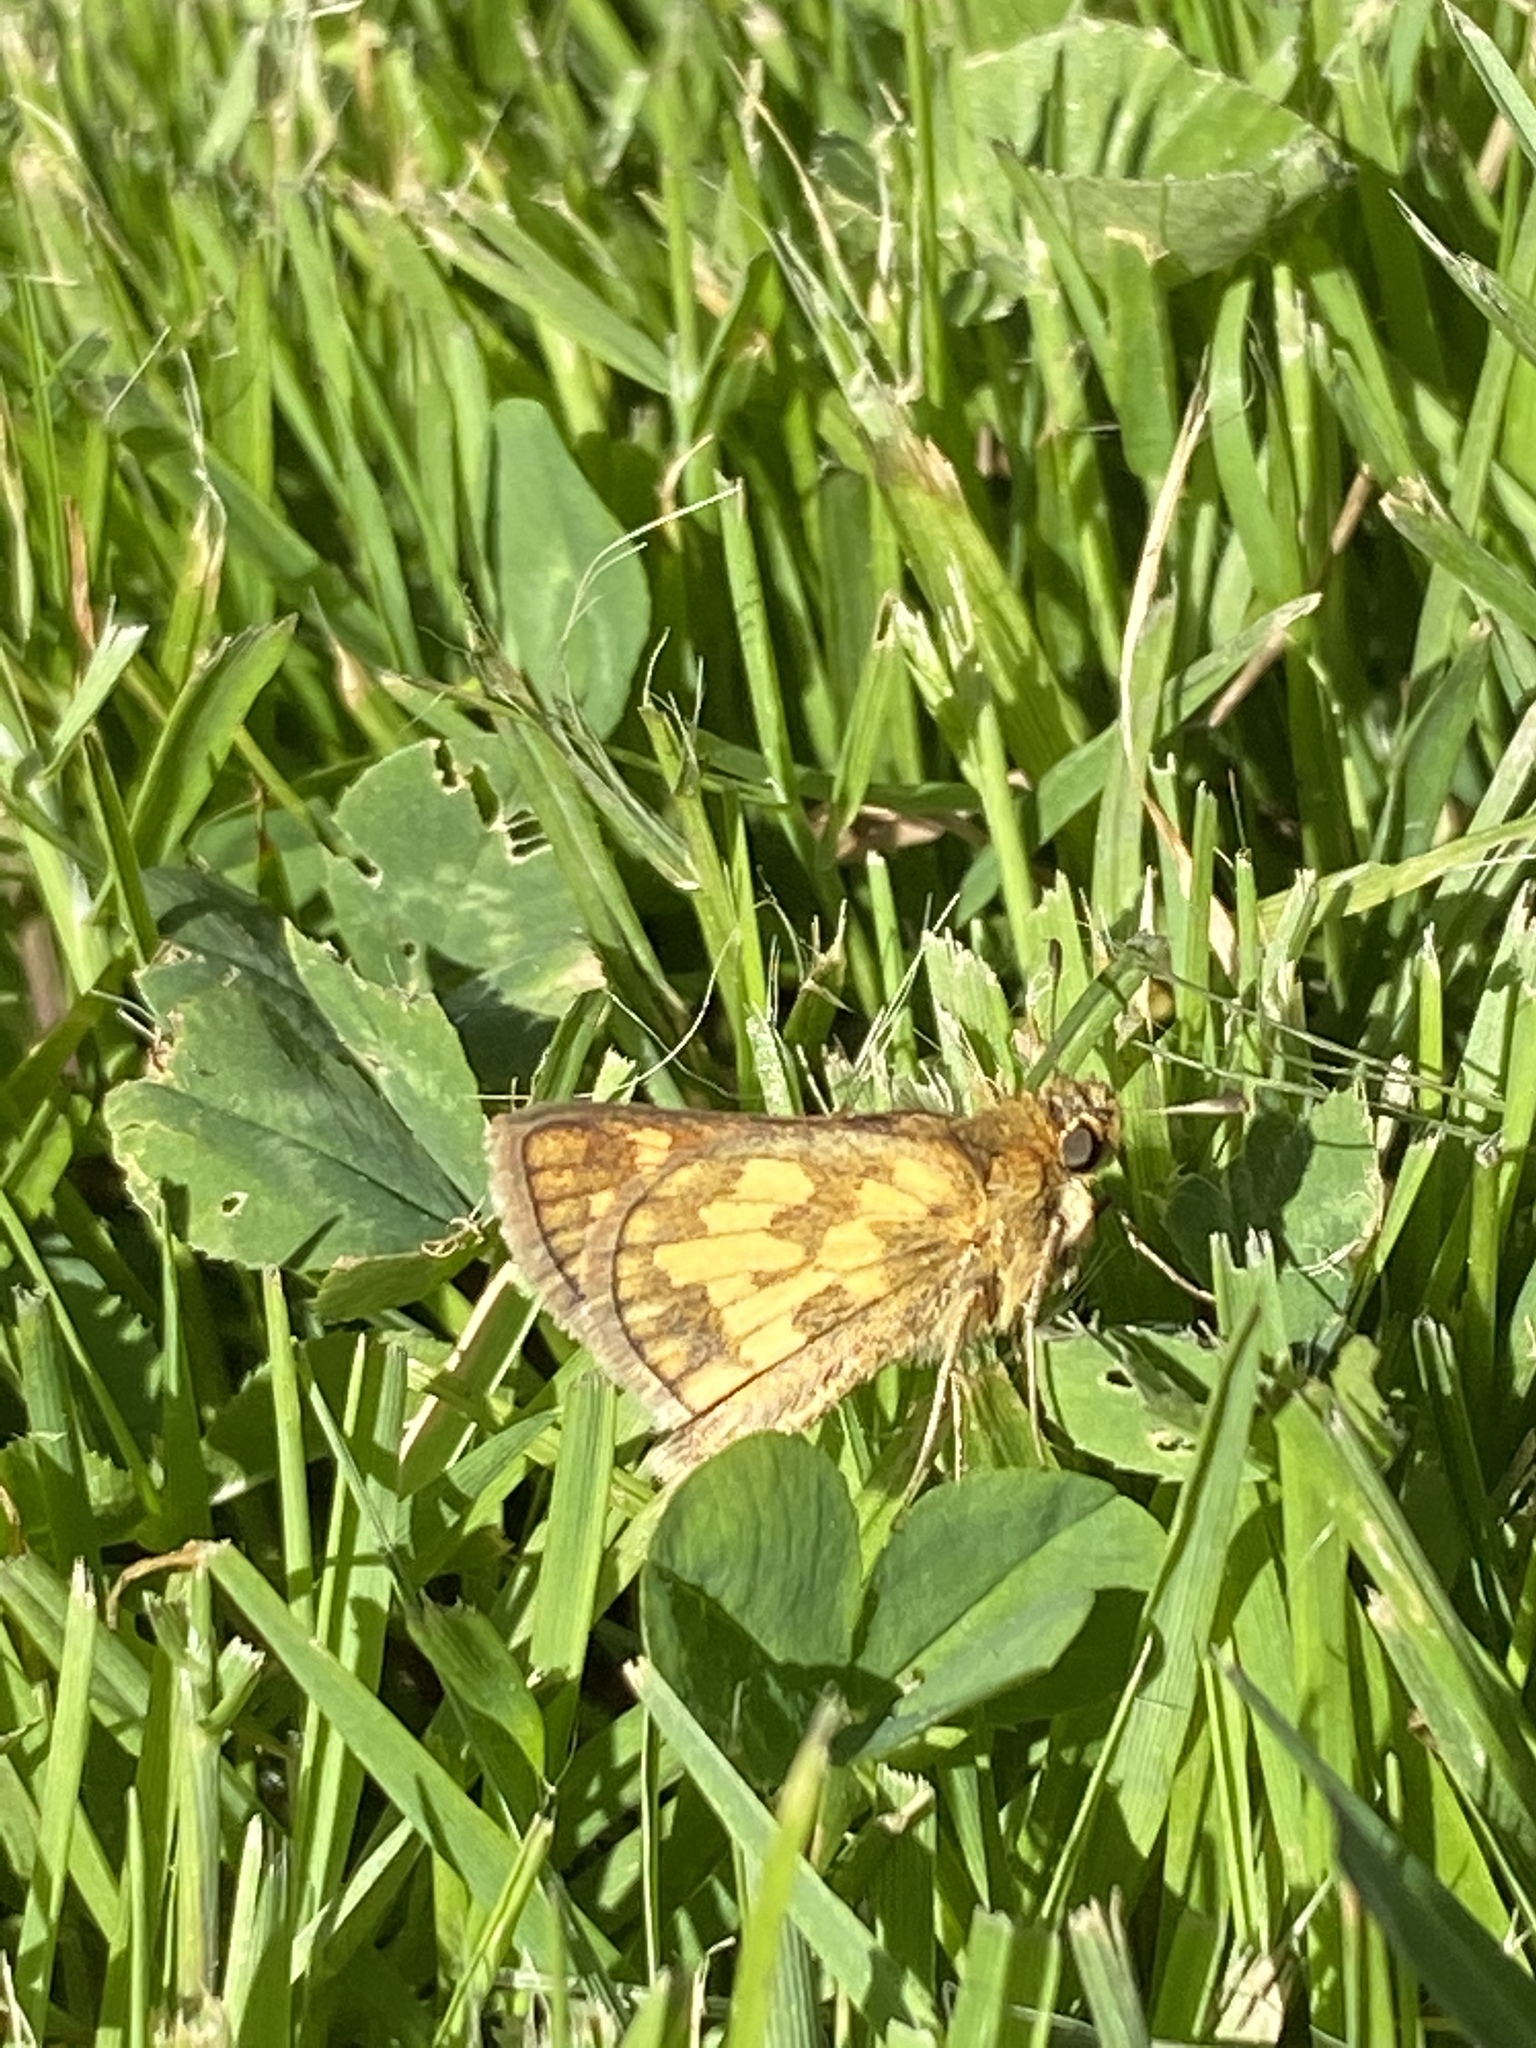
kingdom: Animalia
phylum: Arthropoda
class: Insecta
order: Lepidoptera
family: Hesperiidae
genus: Polites
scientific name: Polites coras
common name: Peck's skipper
